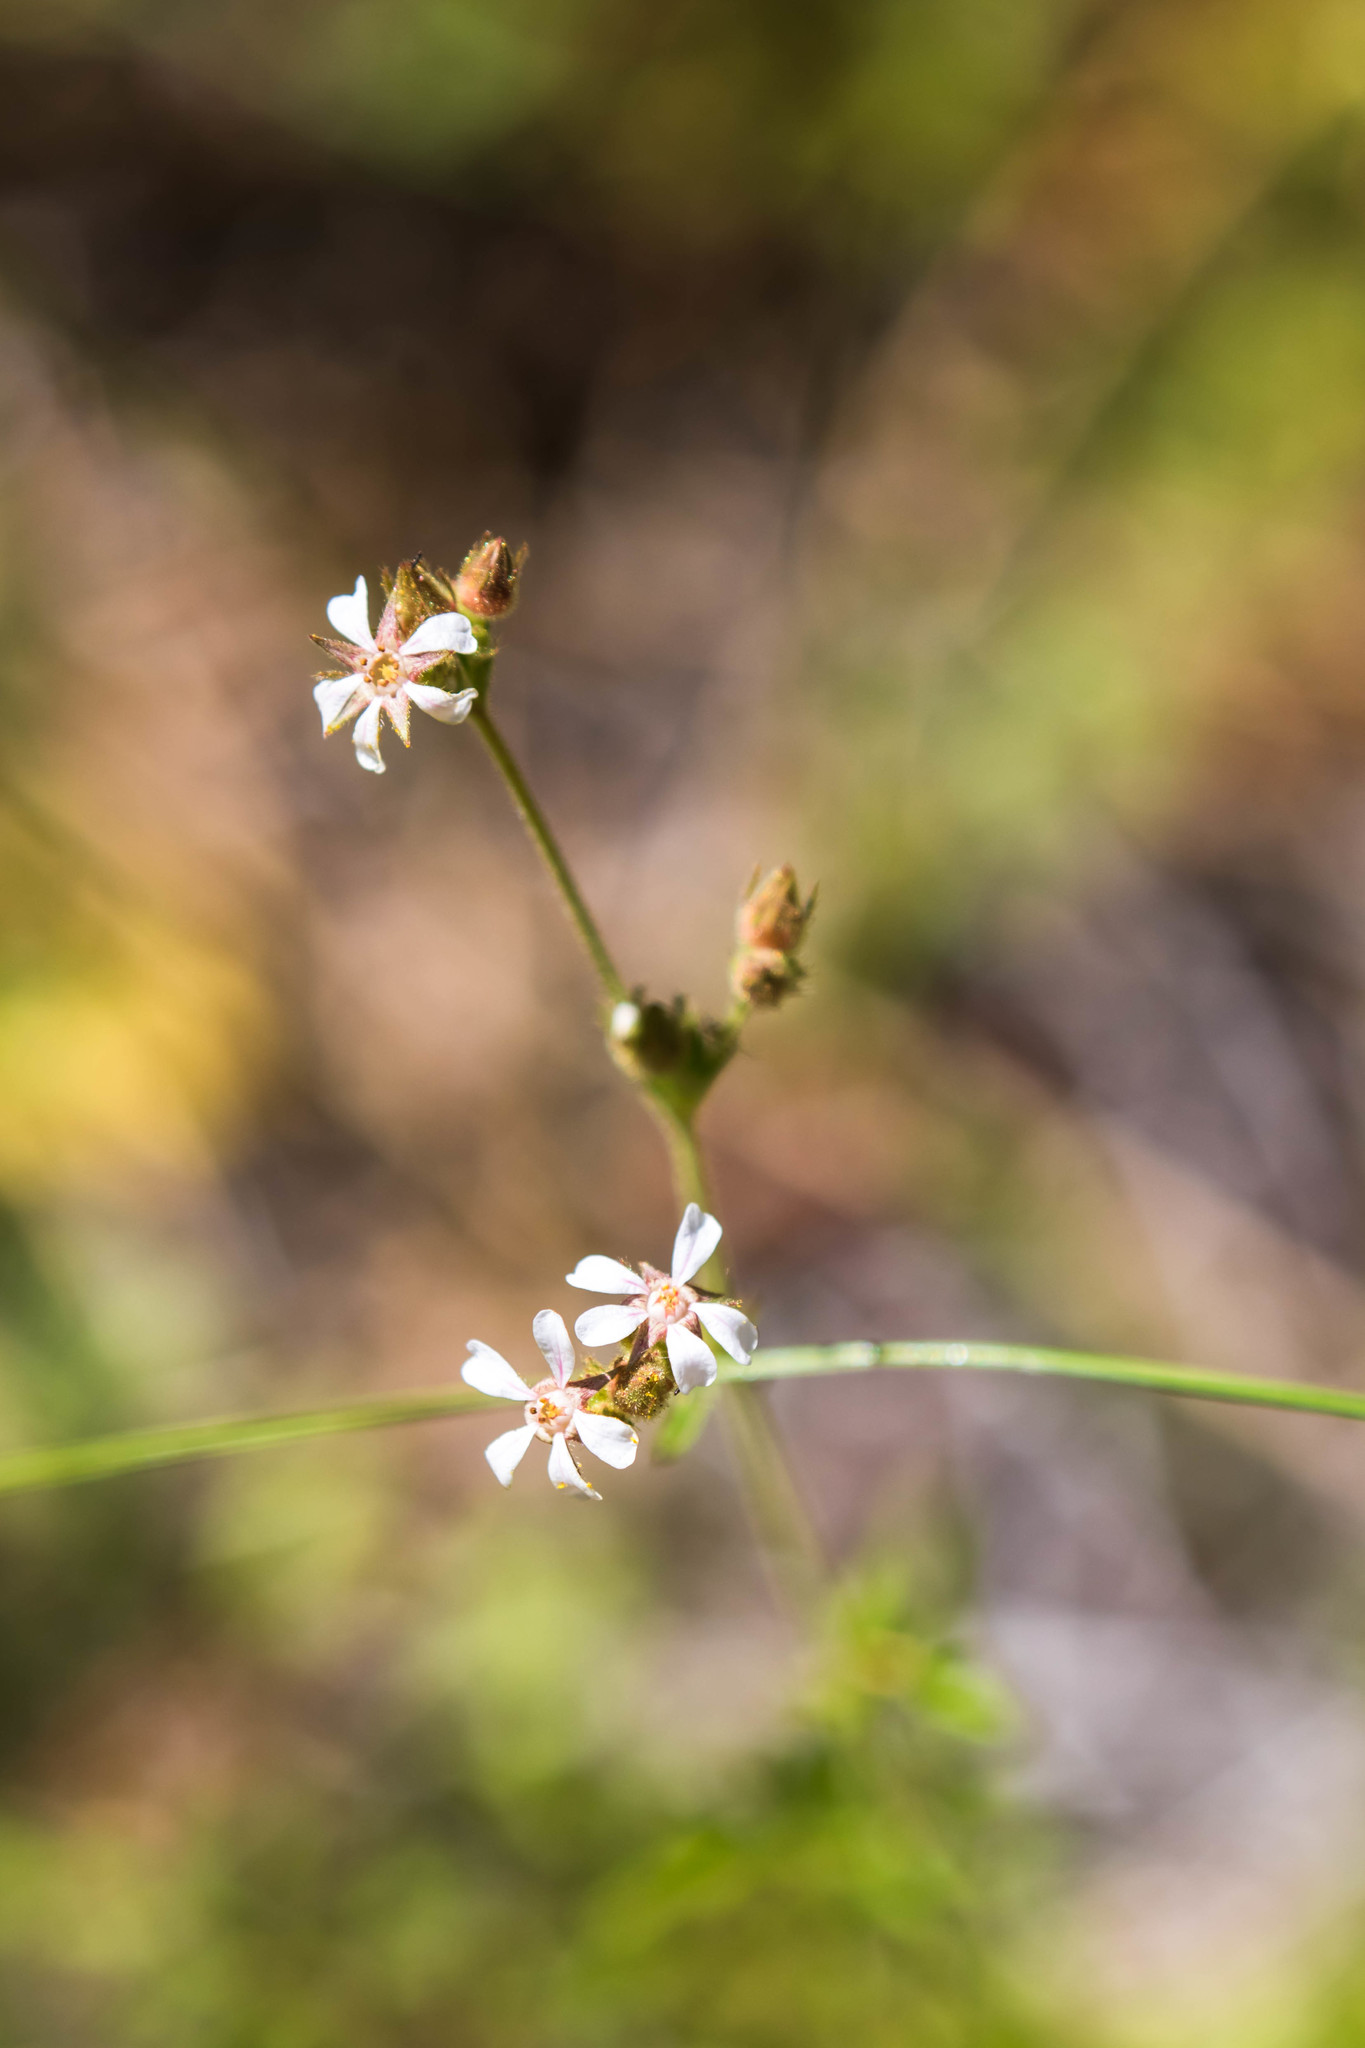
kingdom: Plantae
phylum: Tracheophyta
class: Magnoliopsida
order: Rosales
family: Rosaceae
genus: Potentilla
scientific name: Potentilla douglasii
